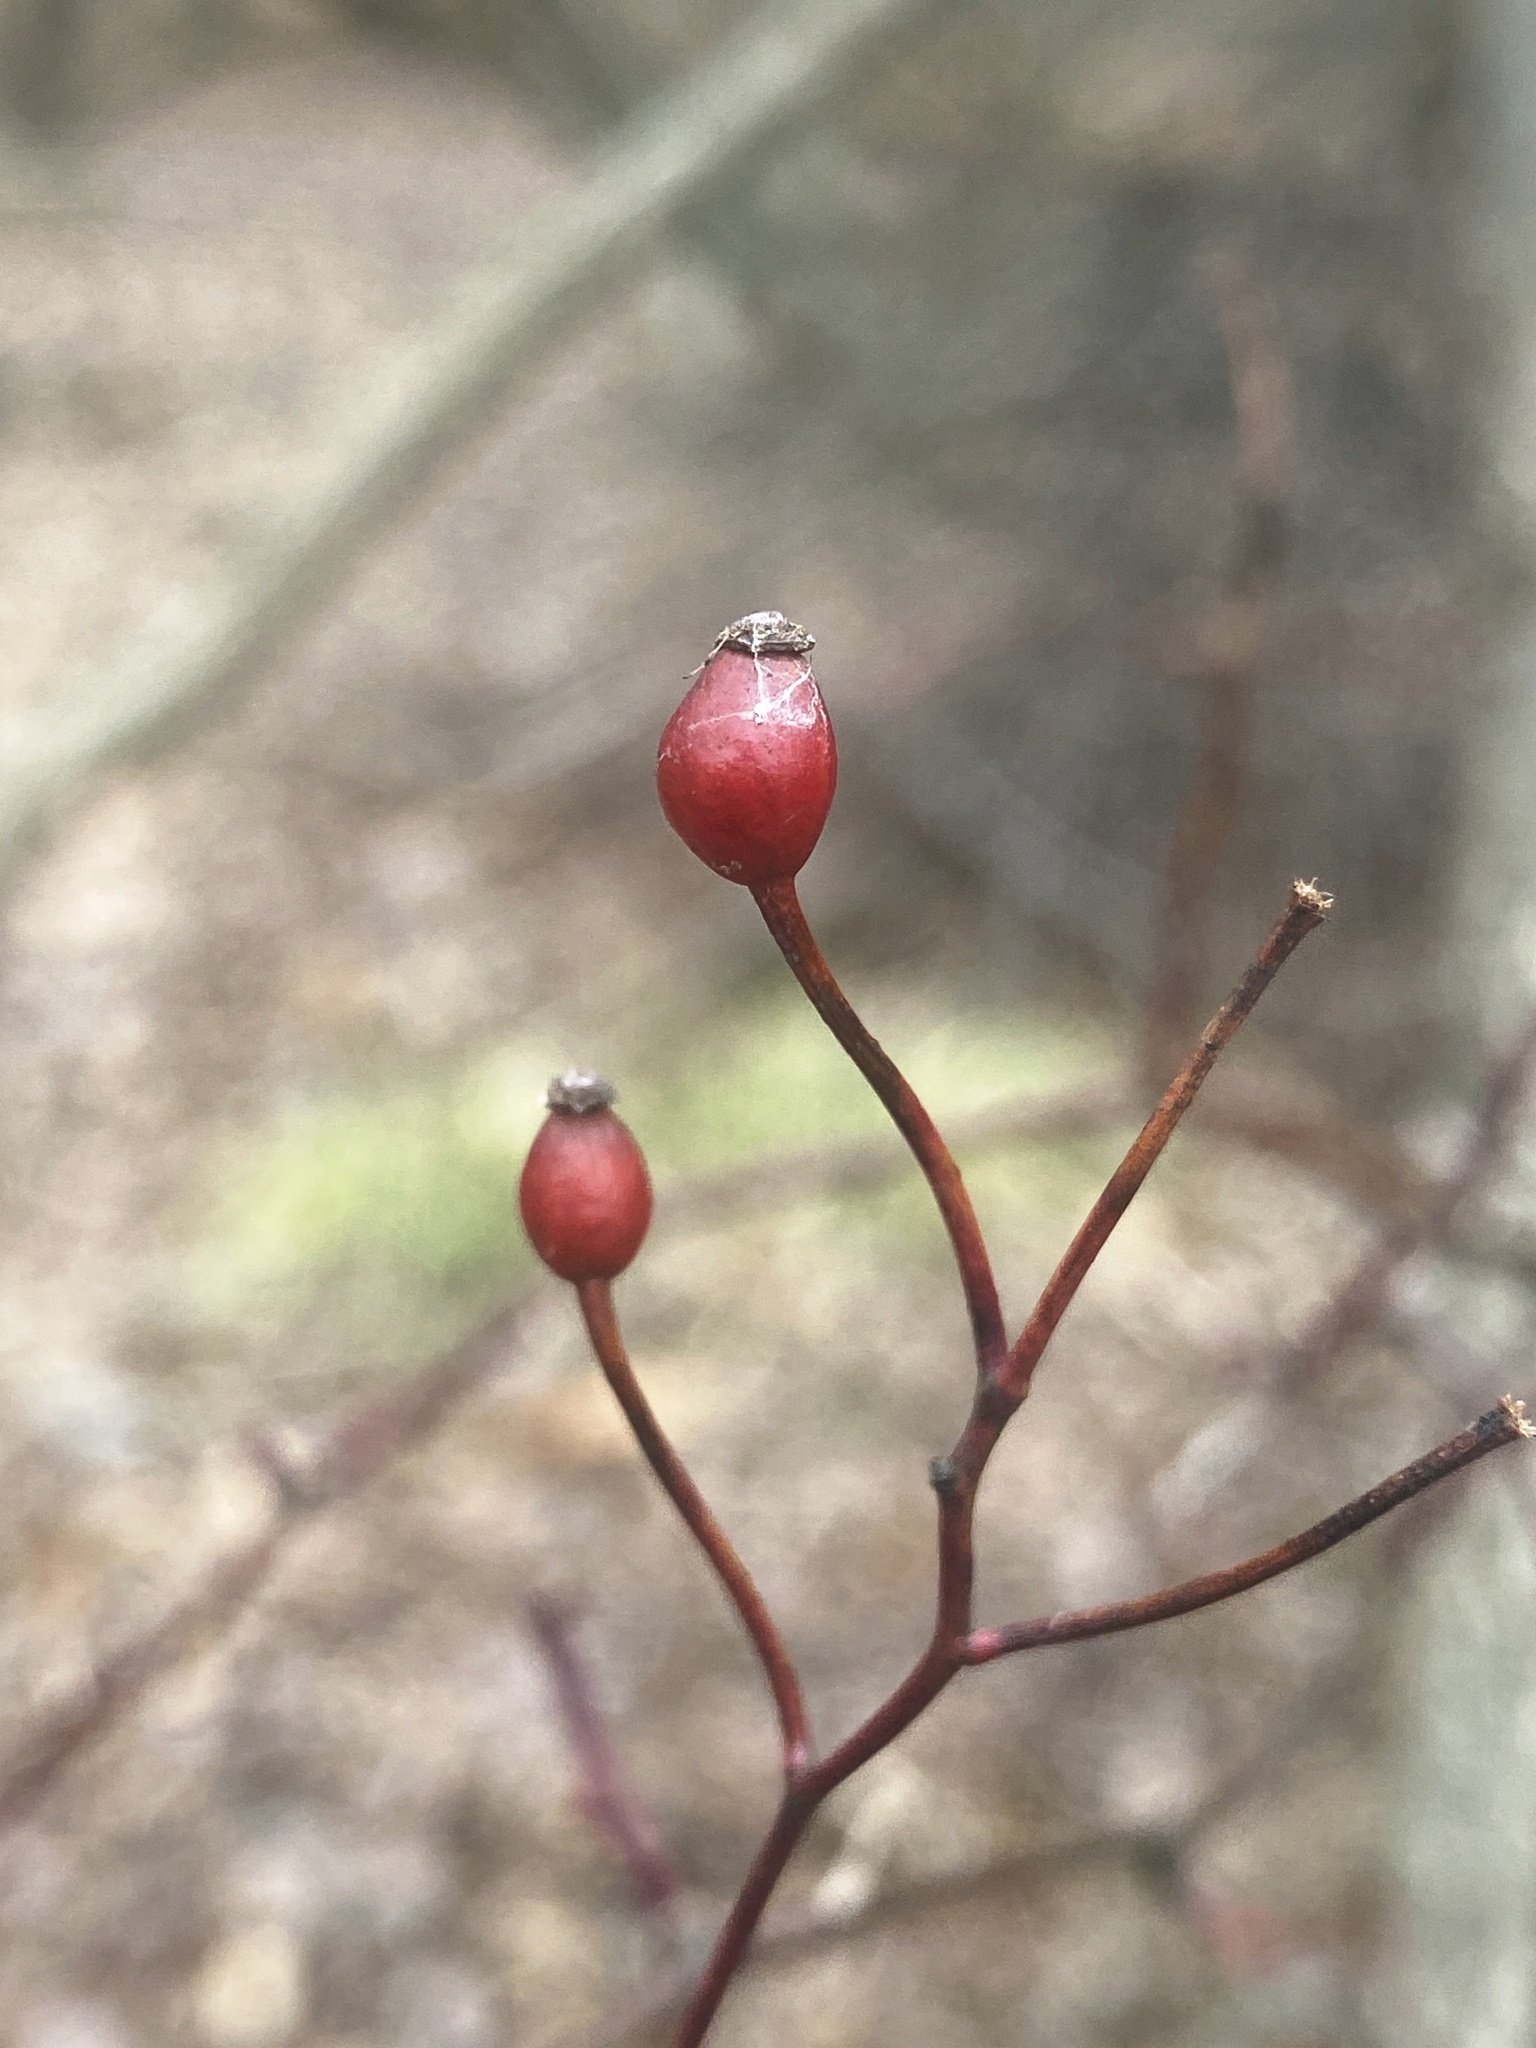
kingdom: Plantae
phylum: Tracheophyta
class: Magnoliopsida
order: Rosales
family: Rosaceae
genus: Rosa
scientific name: Rosa multiflora
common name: Multiflora rose
